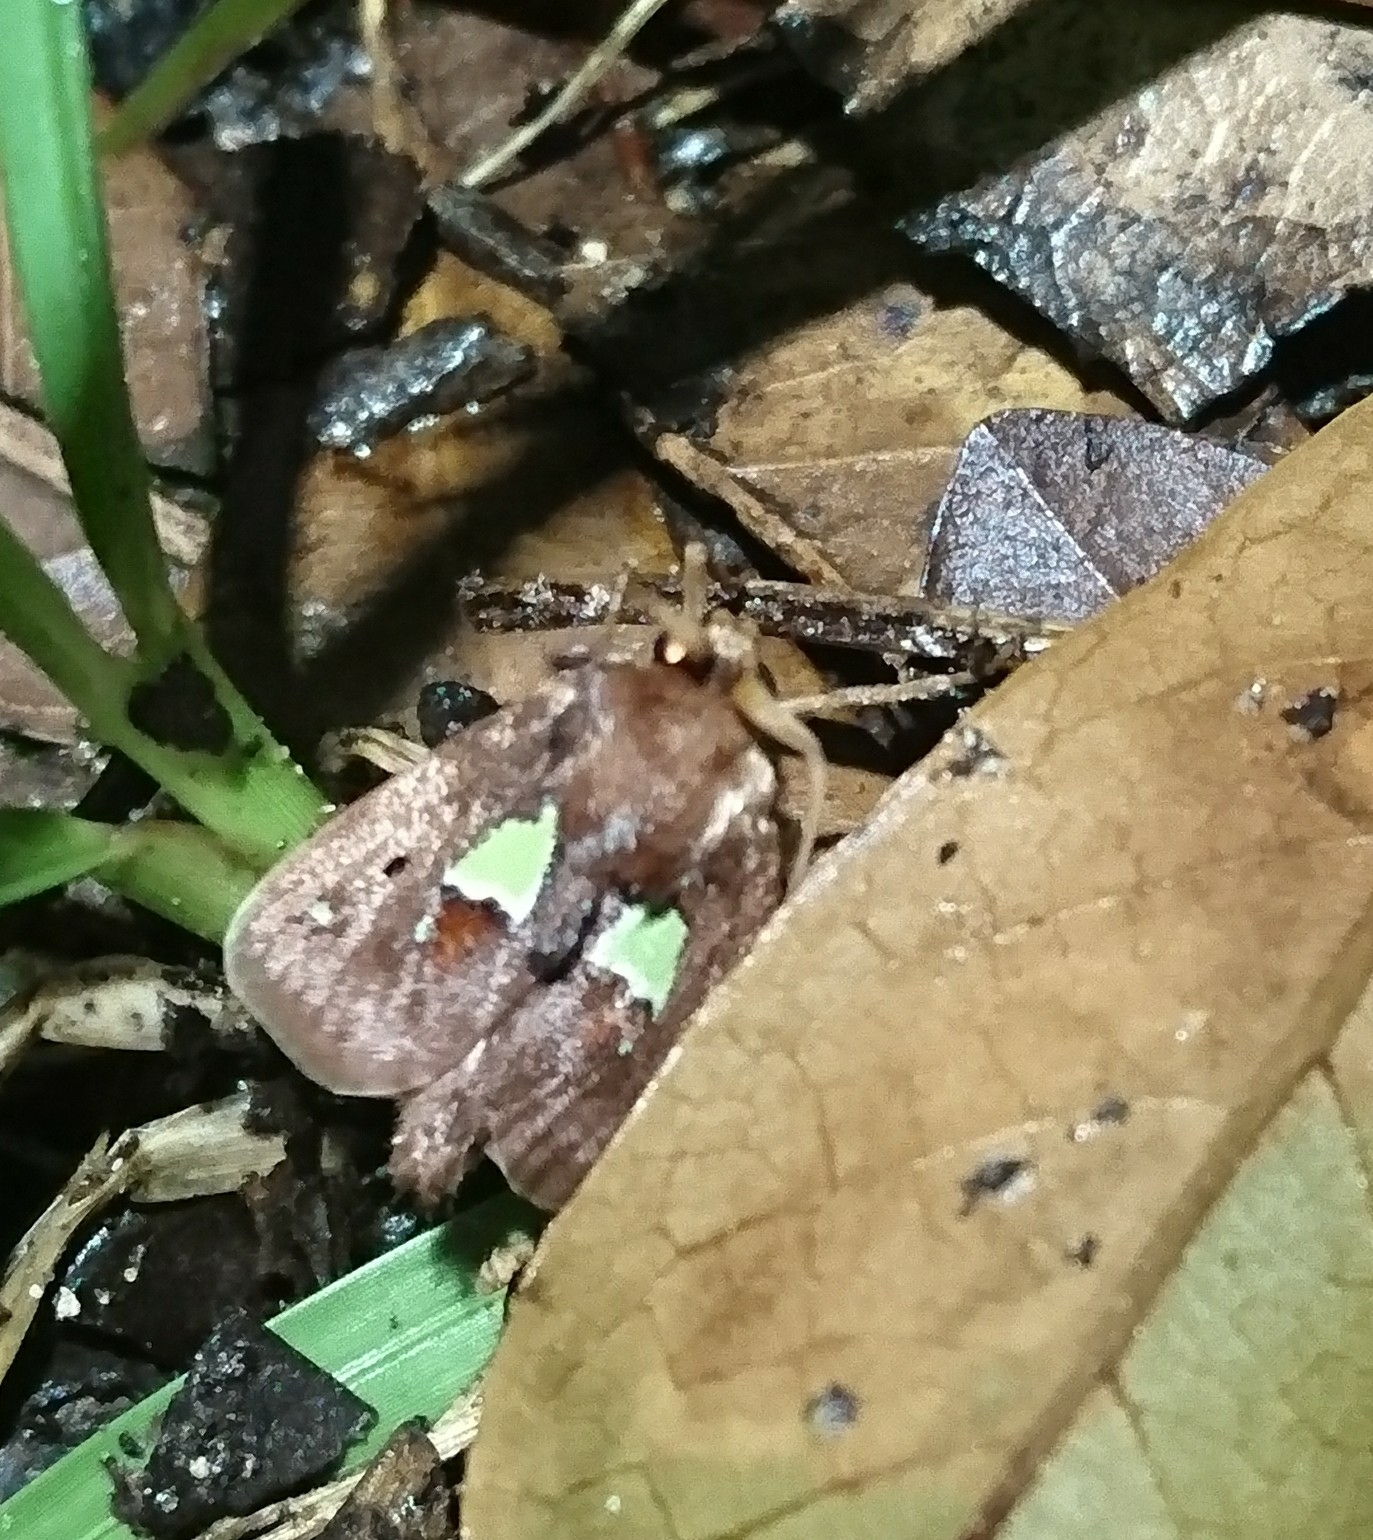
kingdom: Animalia
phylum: Arthropoda
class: Insecta
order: Lepidoptera
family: Limacodidae
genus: Euclea
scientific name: Euclea delphinii
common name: Spiny oak-slug moth
